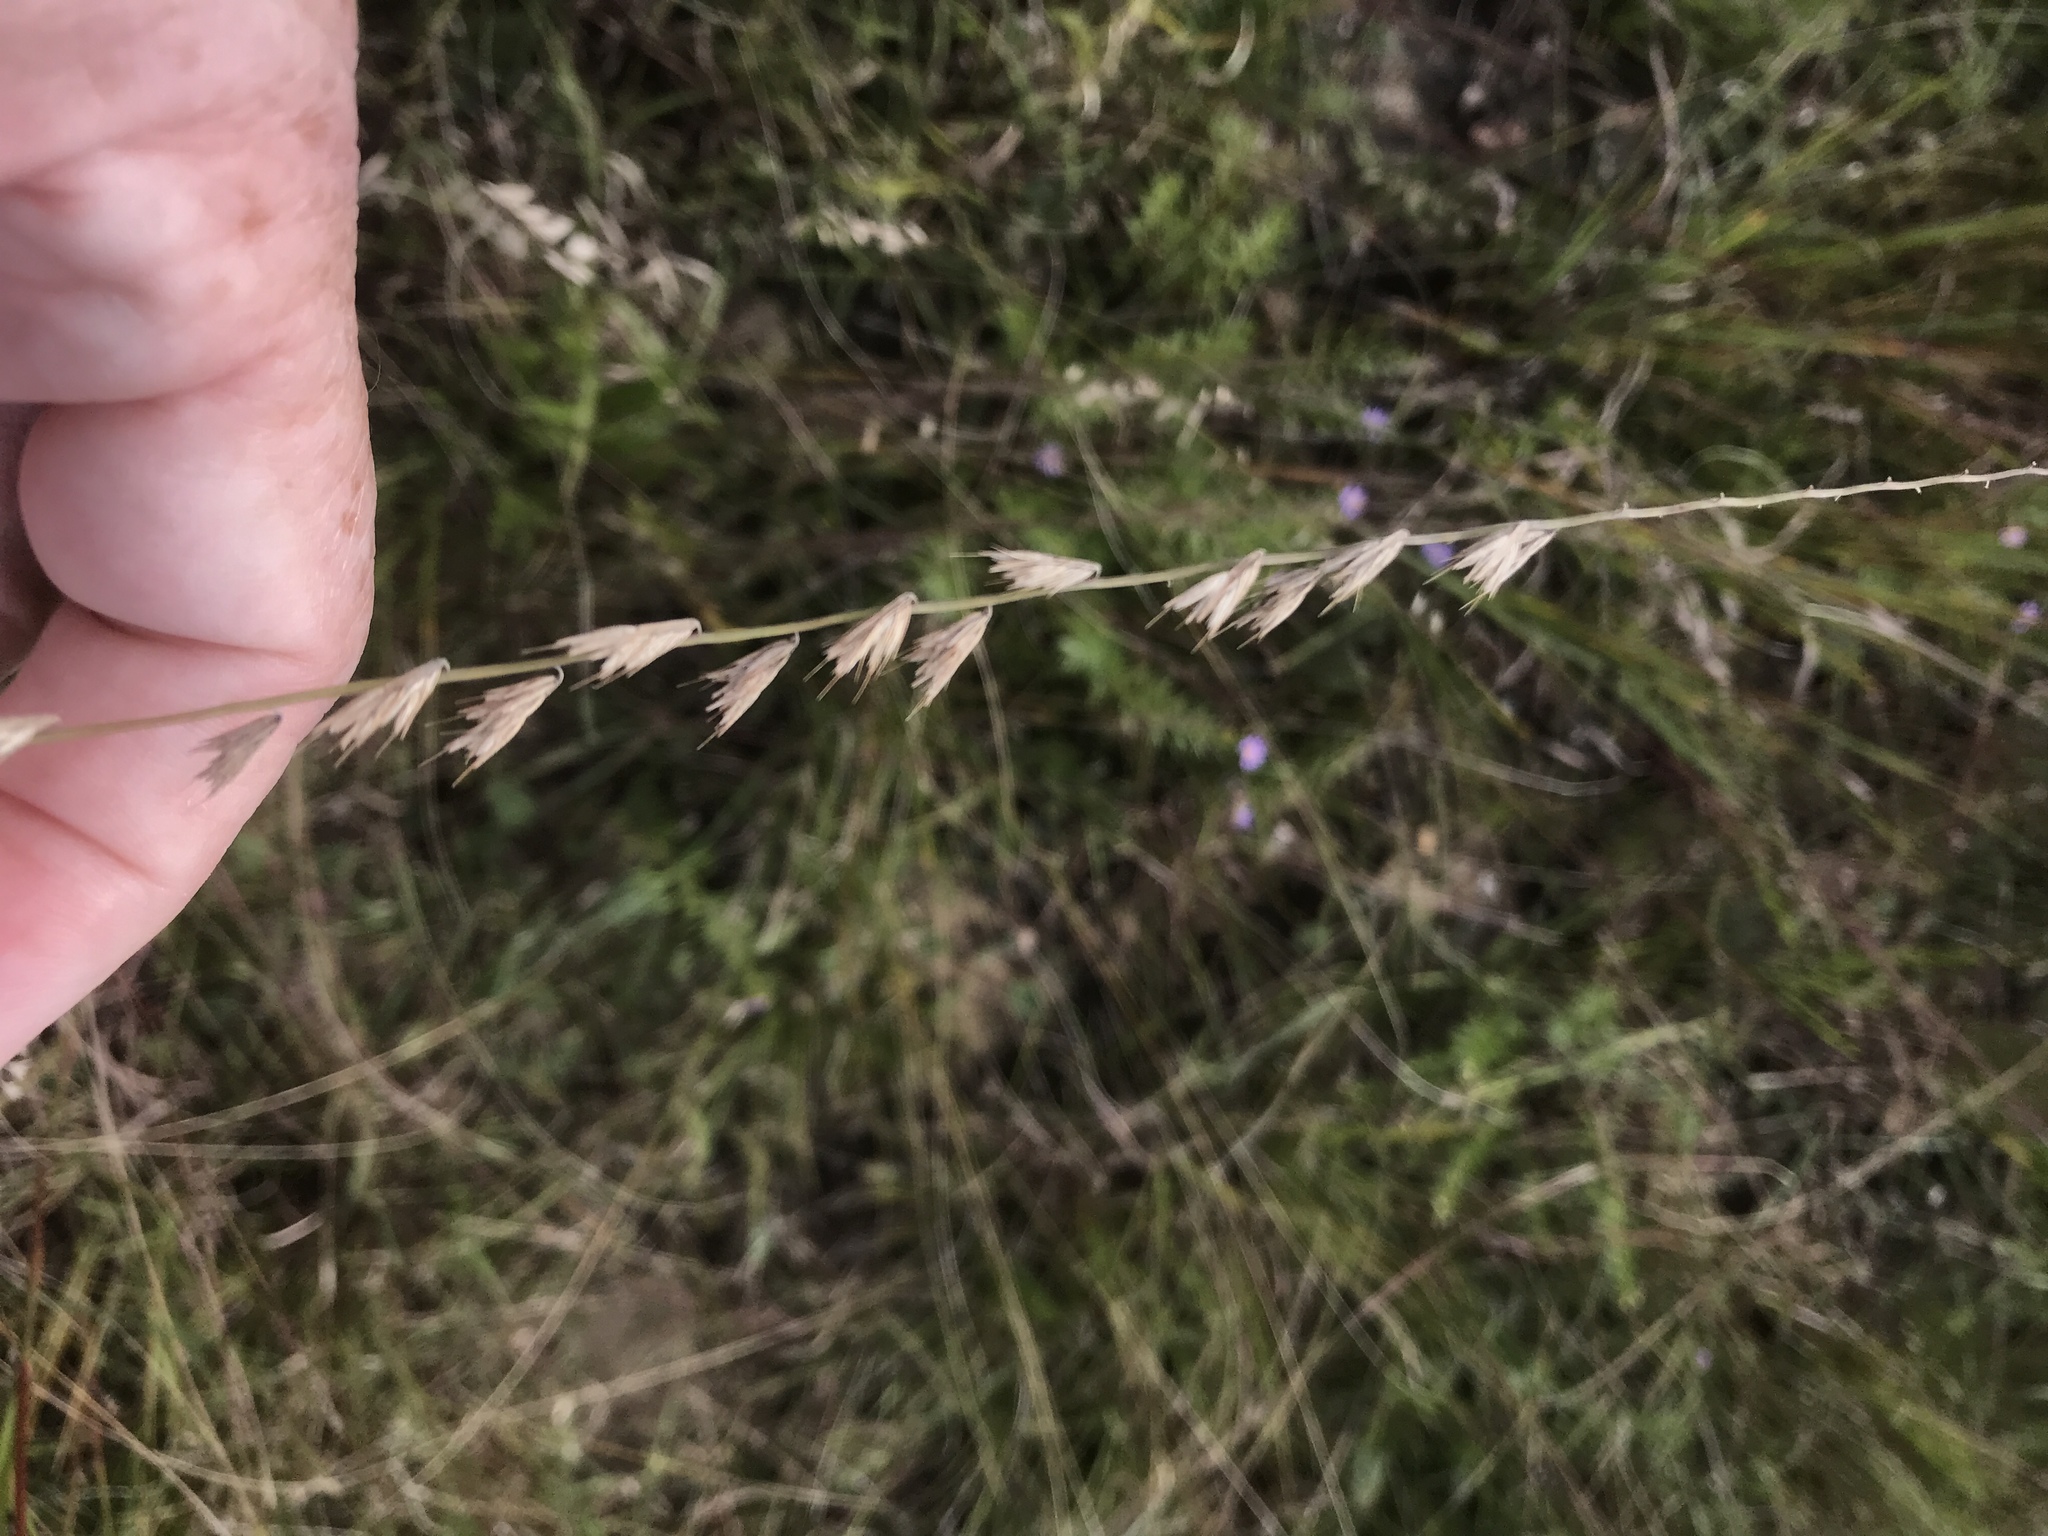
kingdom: Plantae
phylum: Tracheophyta
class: Liliopsida
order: Poales
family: Poaceae
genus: Bouteloua
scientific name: Bouteloua curtipendula
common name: Side-oats grama
